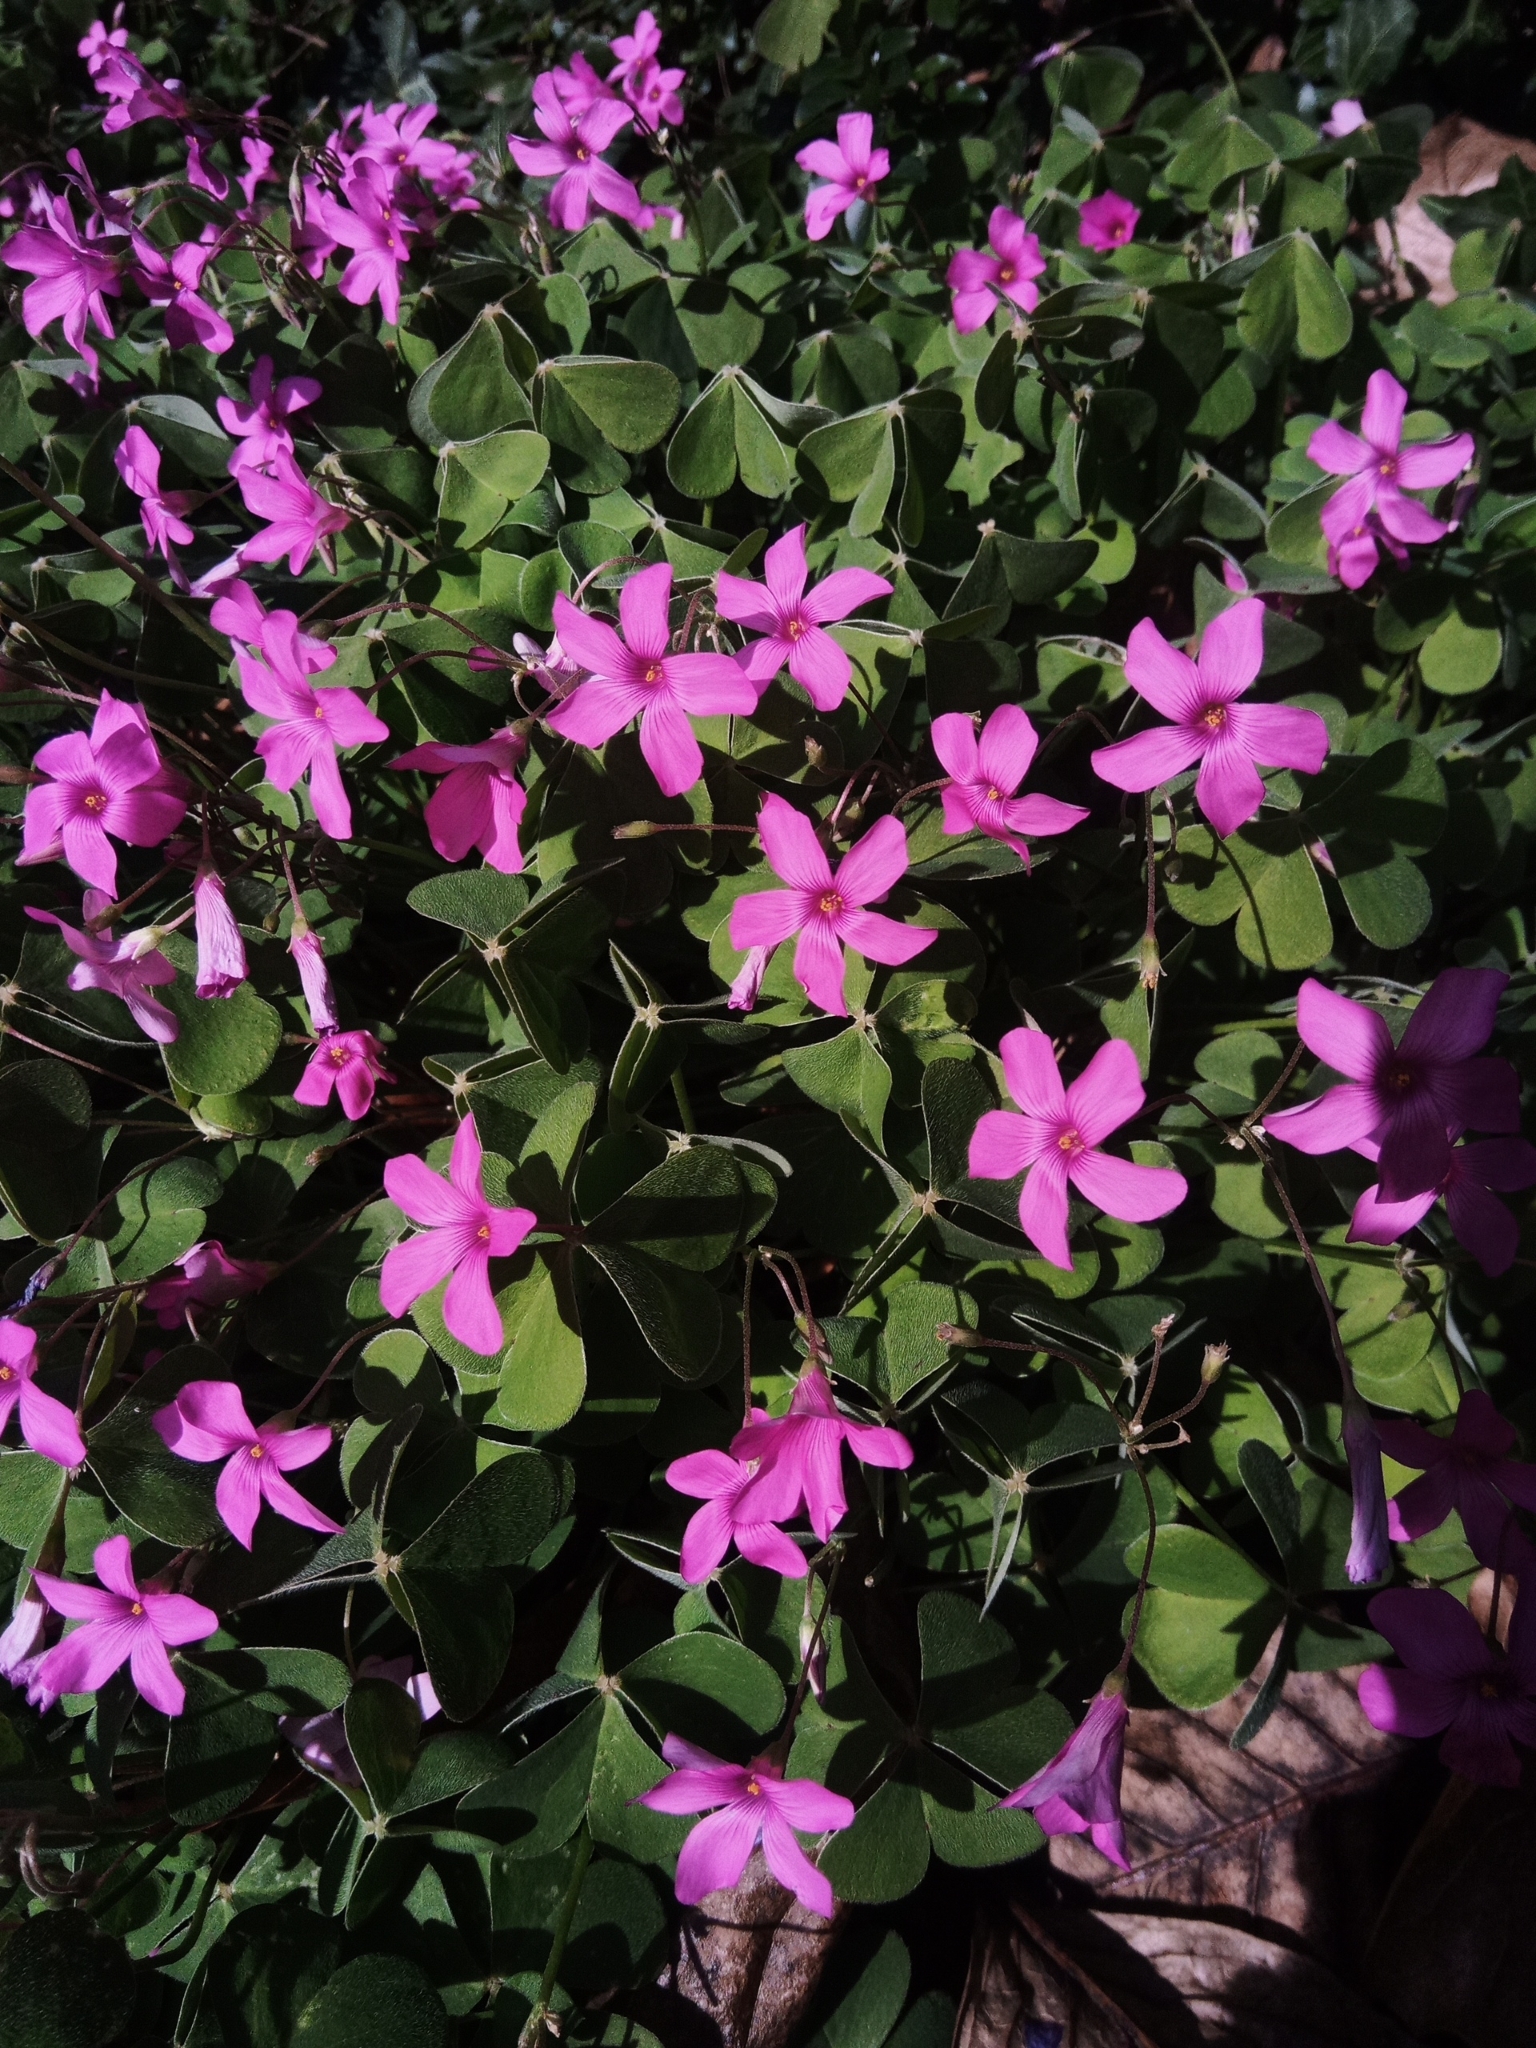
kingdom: Plantae
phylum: Tracheophyta
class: Magnoliopsida
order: Oxalidales
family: Oxalidaceae
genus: Oxalis
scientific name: Oxalis articulata
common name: Pink-sorrel
